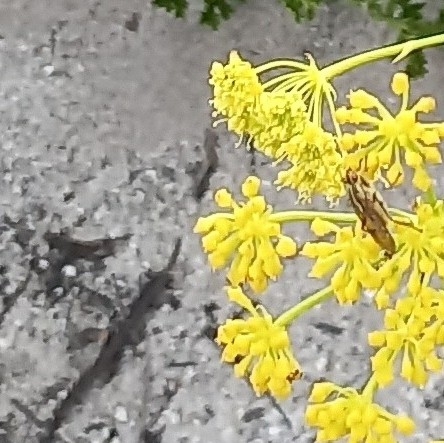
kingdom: Animalia
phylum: Arthropoda
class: Insecta
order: Diptera
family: Scathophagidae
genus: Scathophaga
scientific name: Scathophaga soror
